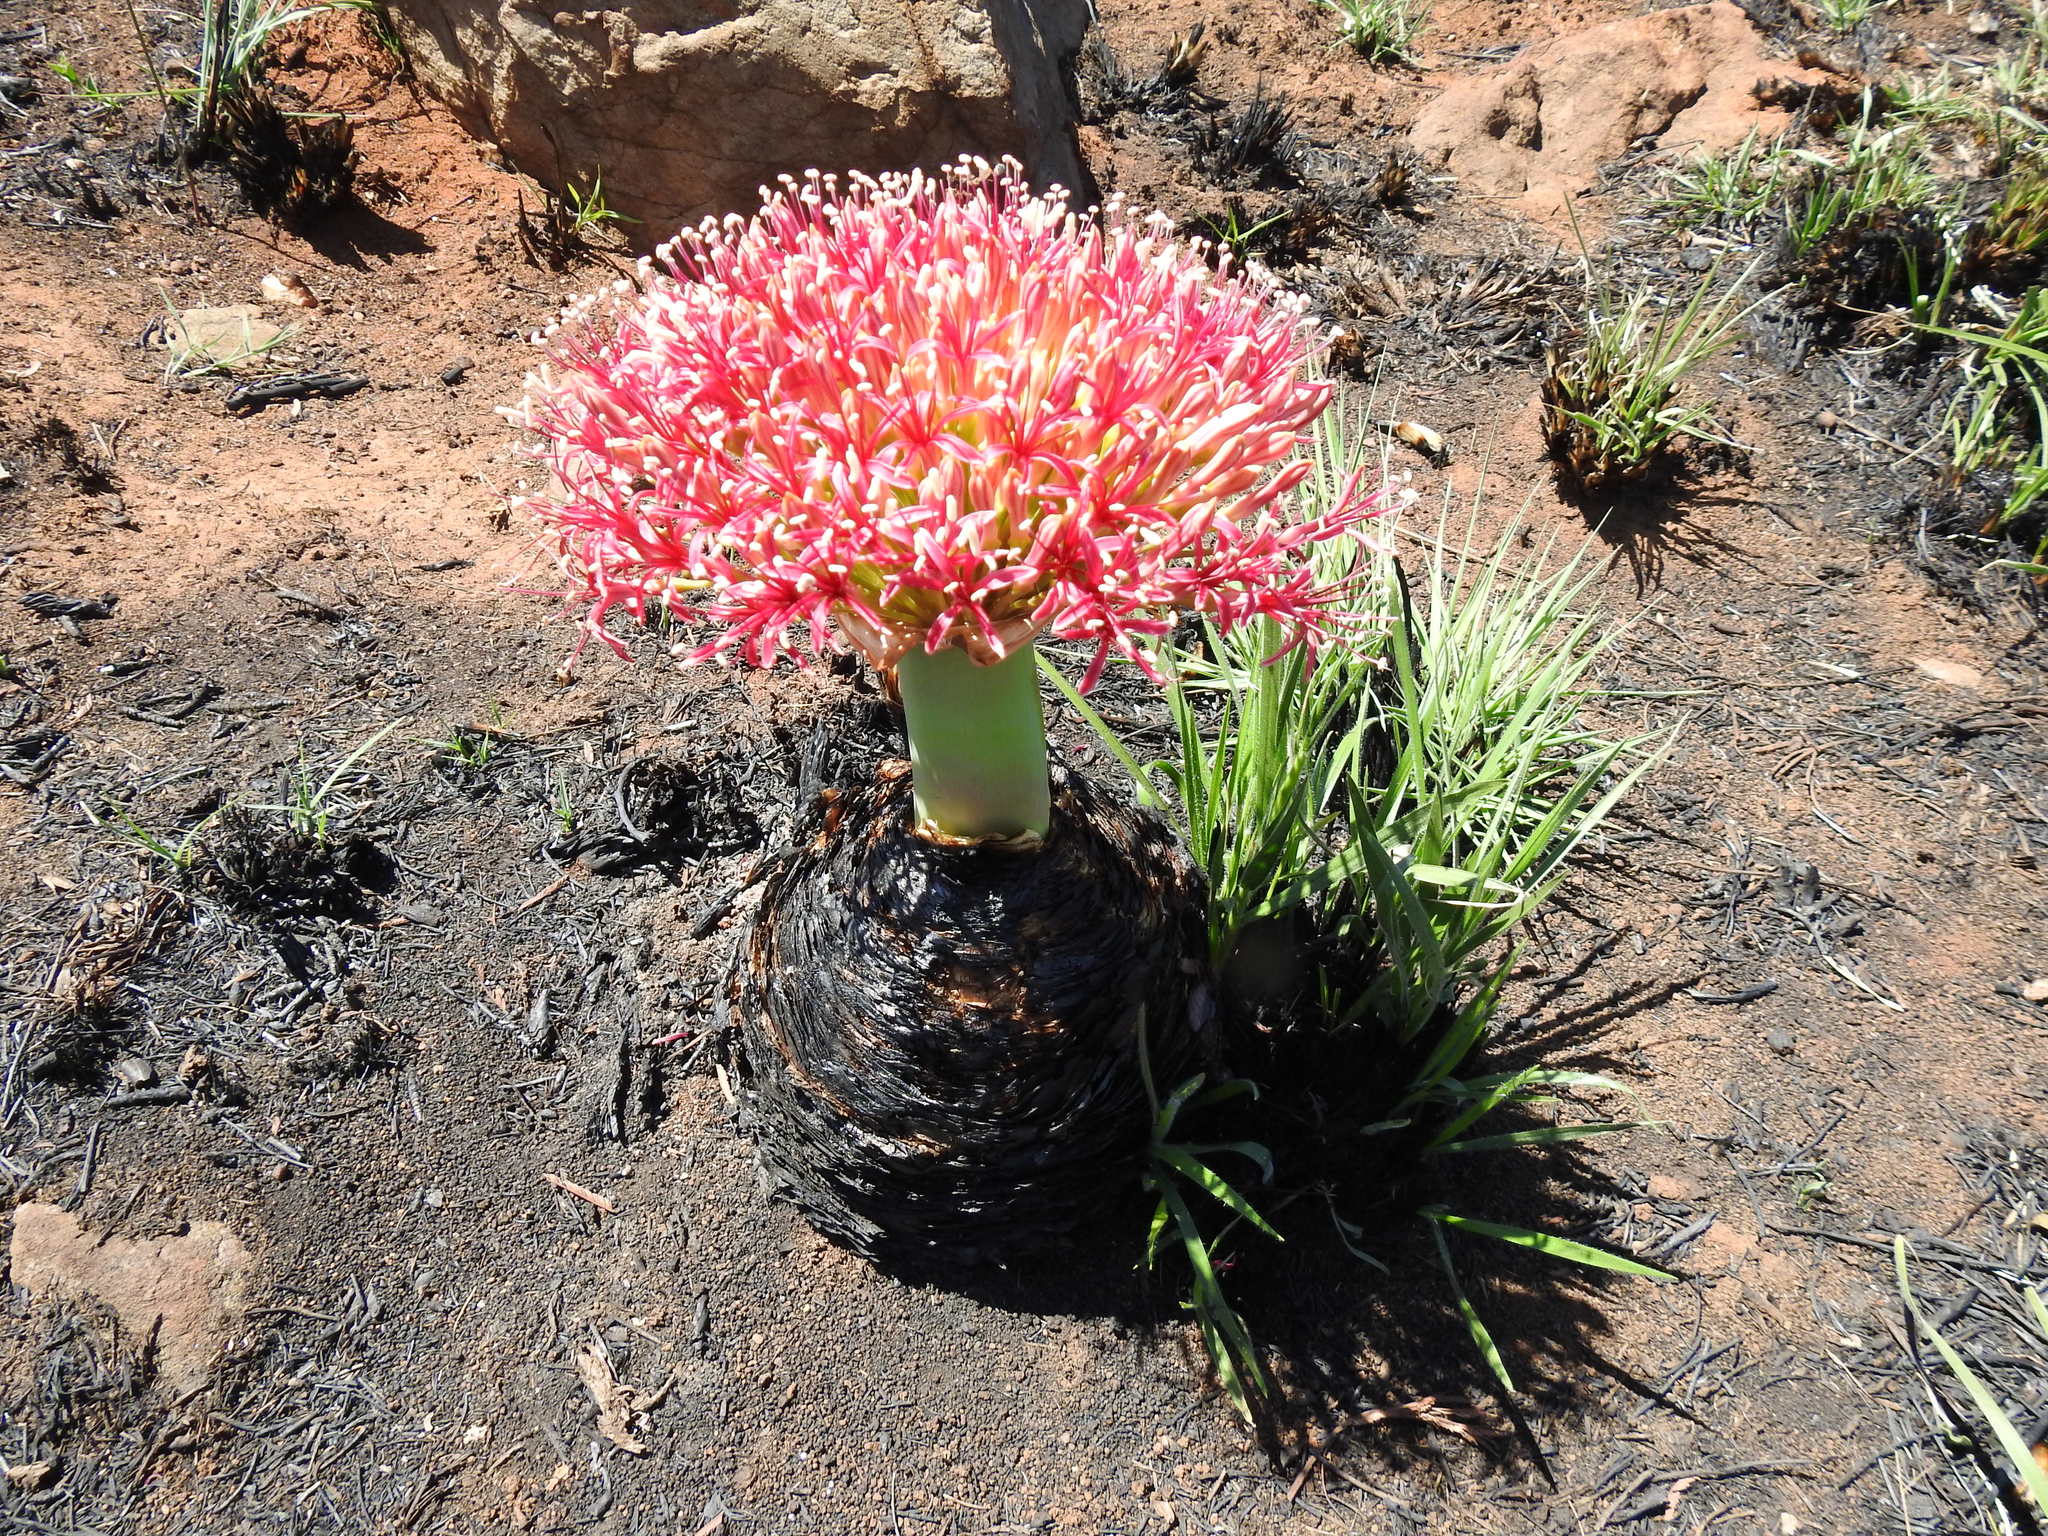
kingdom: Plantae
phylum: Tracheophyta
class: Liliopsida
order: Asparagales
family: Amaryllidaceae
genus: Boophone
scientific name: Boophone disticha
